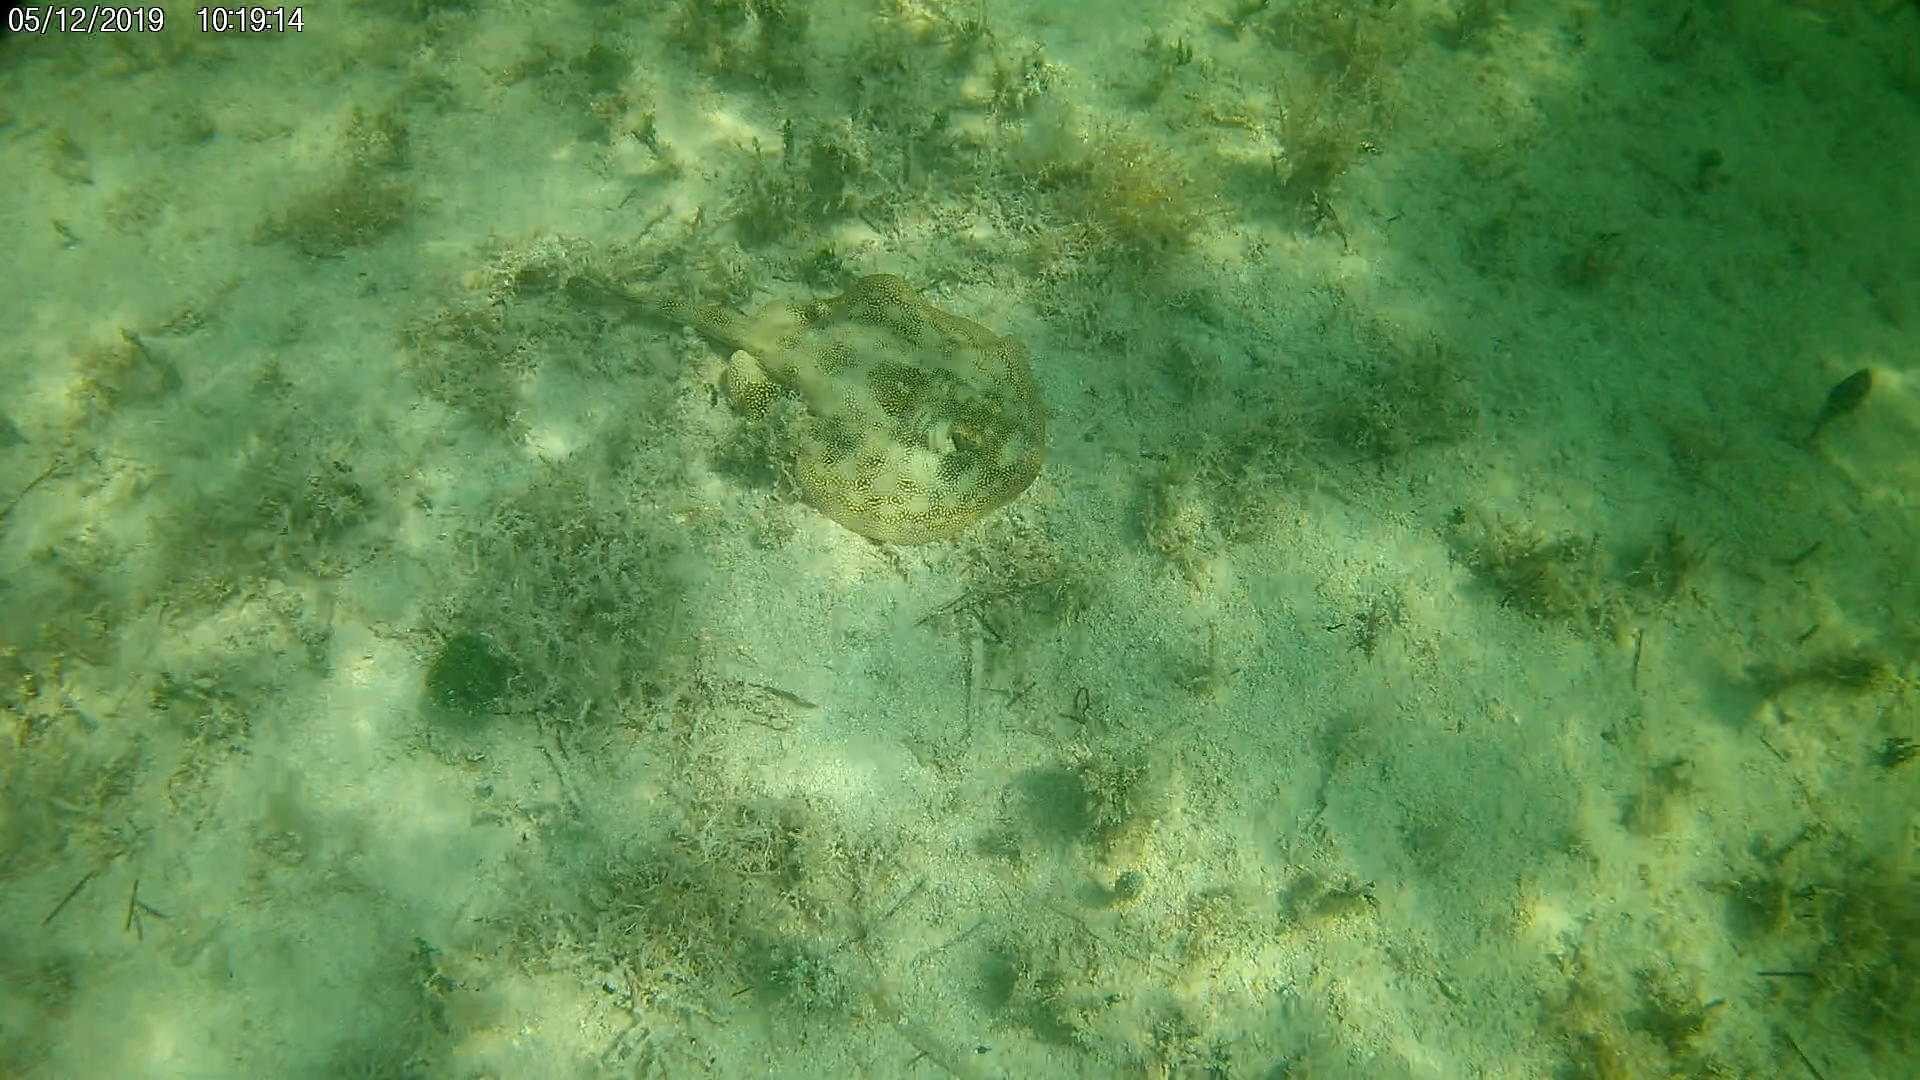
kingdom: Animalia
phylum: Chordata
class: Elasmobranchii
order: Myliobatiformes
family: Urotrygonidae
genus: Urobatis
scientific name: Urobatis jamaicensis
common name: Yellow stingray
